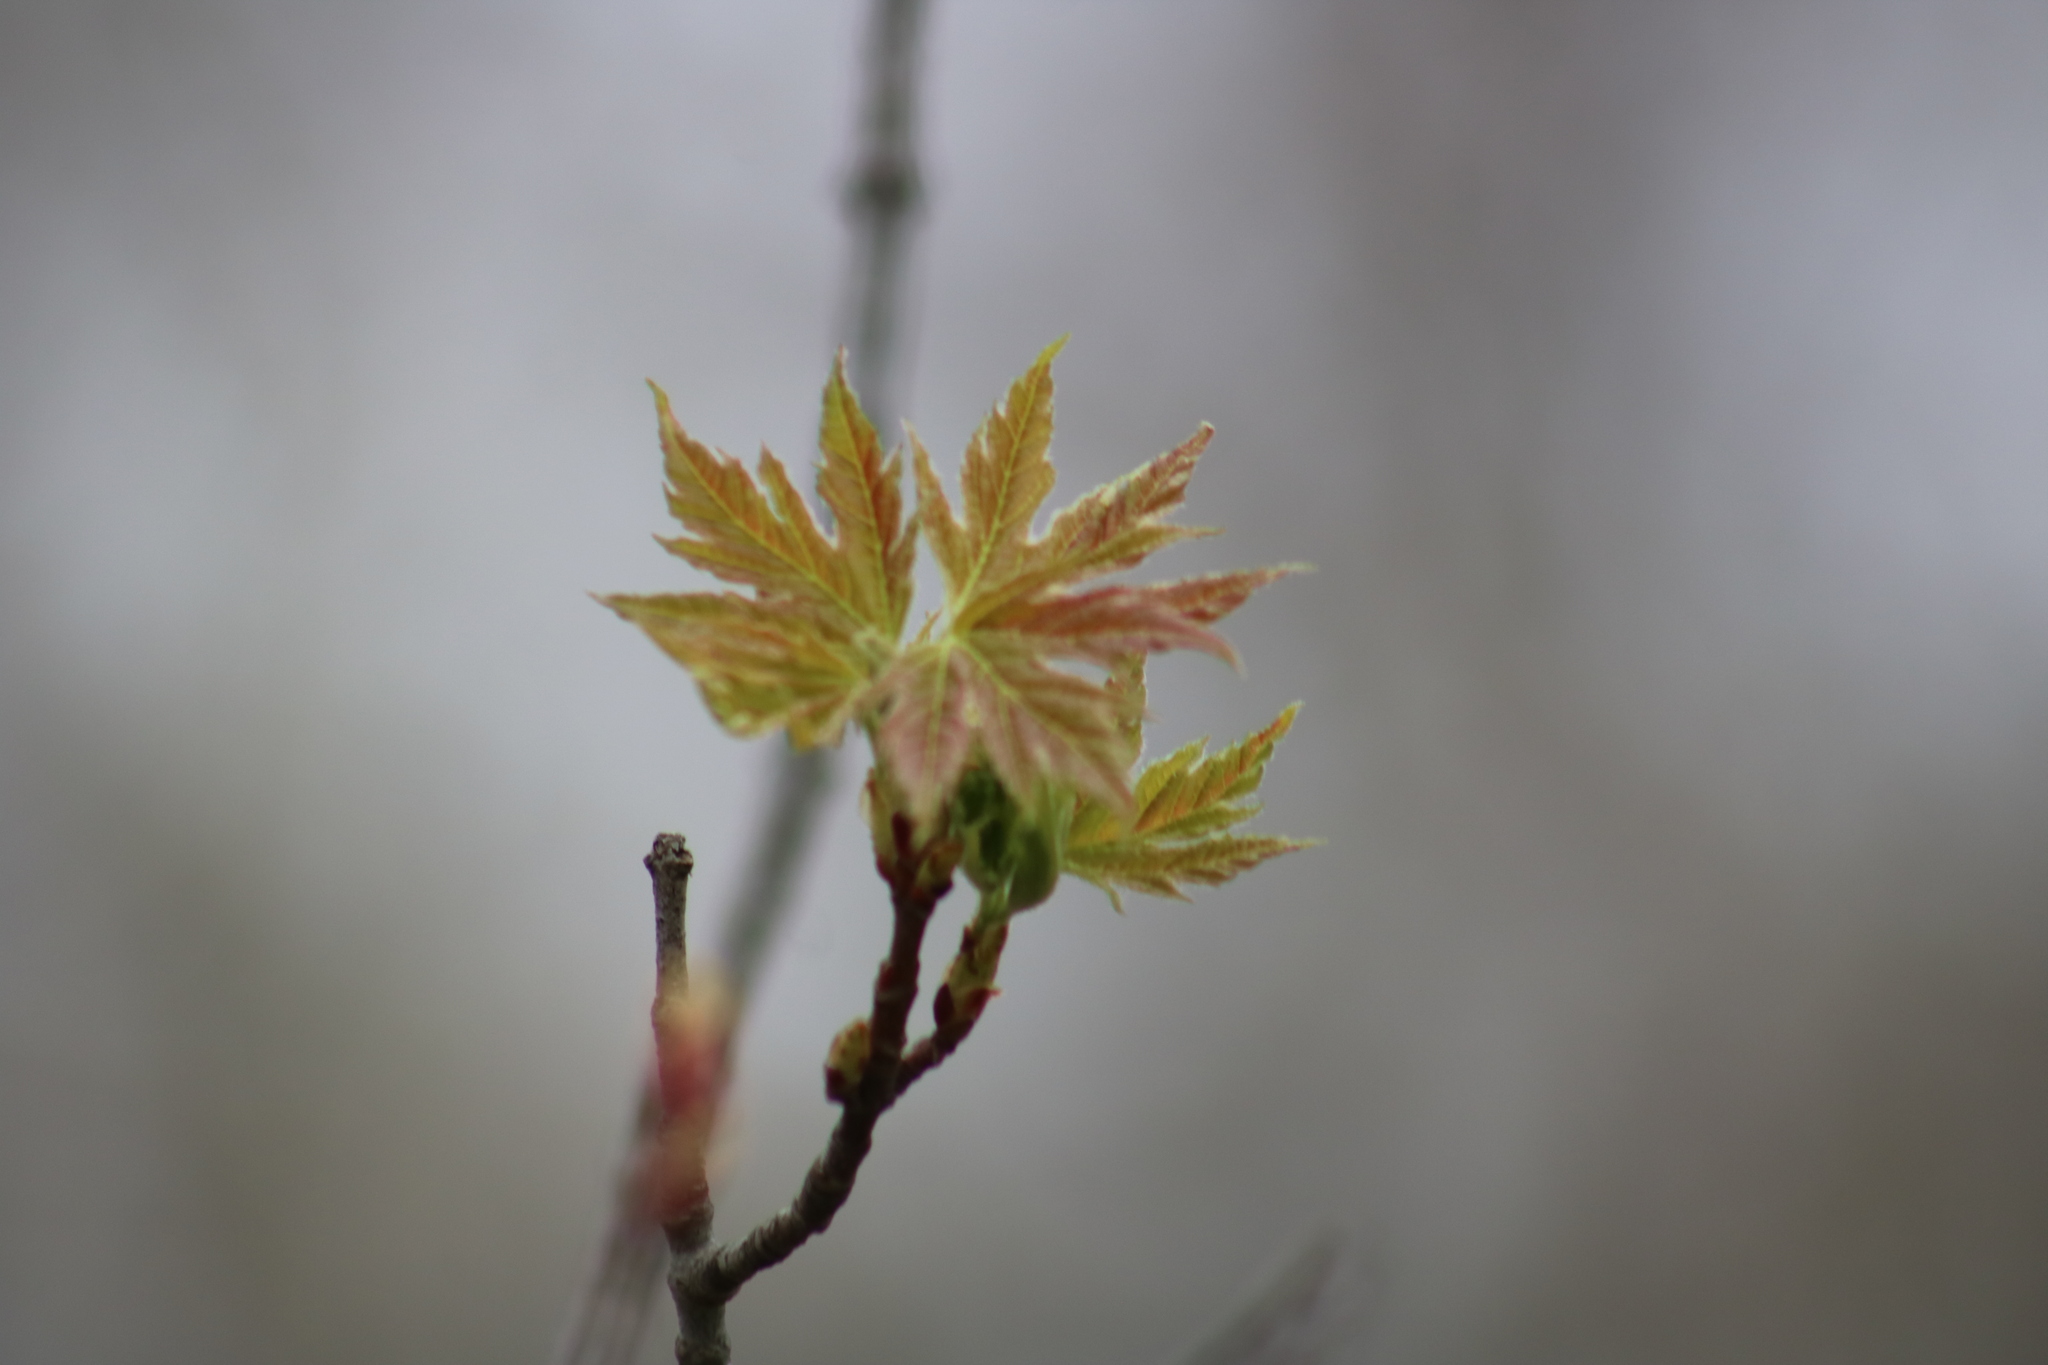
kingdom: Plantae
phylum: Tracheophyta
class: Magnoliopsida
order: Sapindales
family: Sapindaceae
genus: Acer
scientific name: Acer saccharinum
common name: Silver maple
